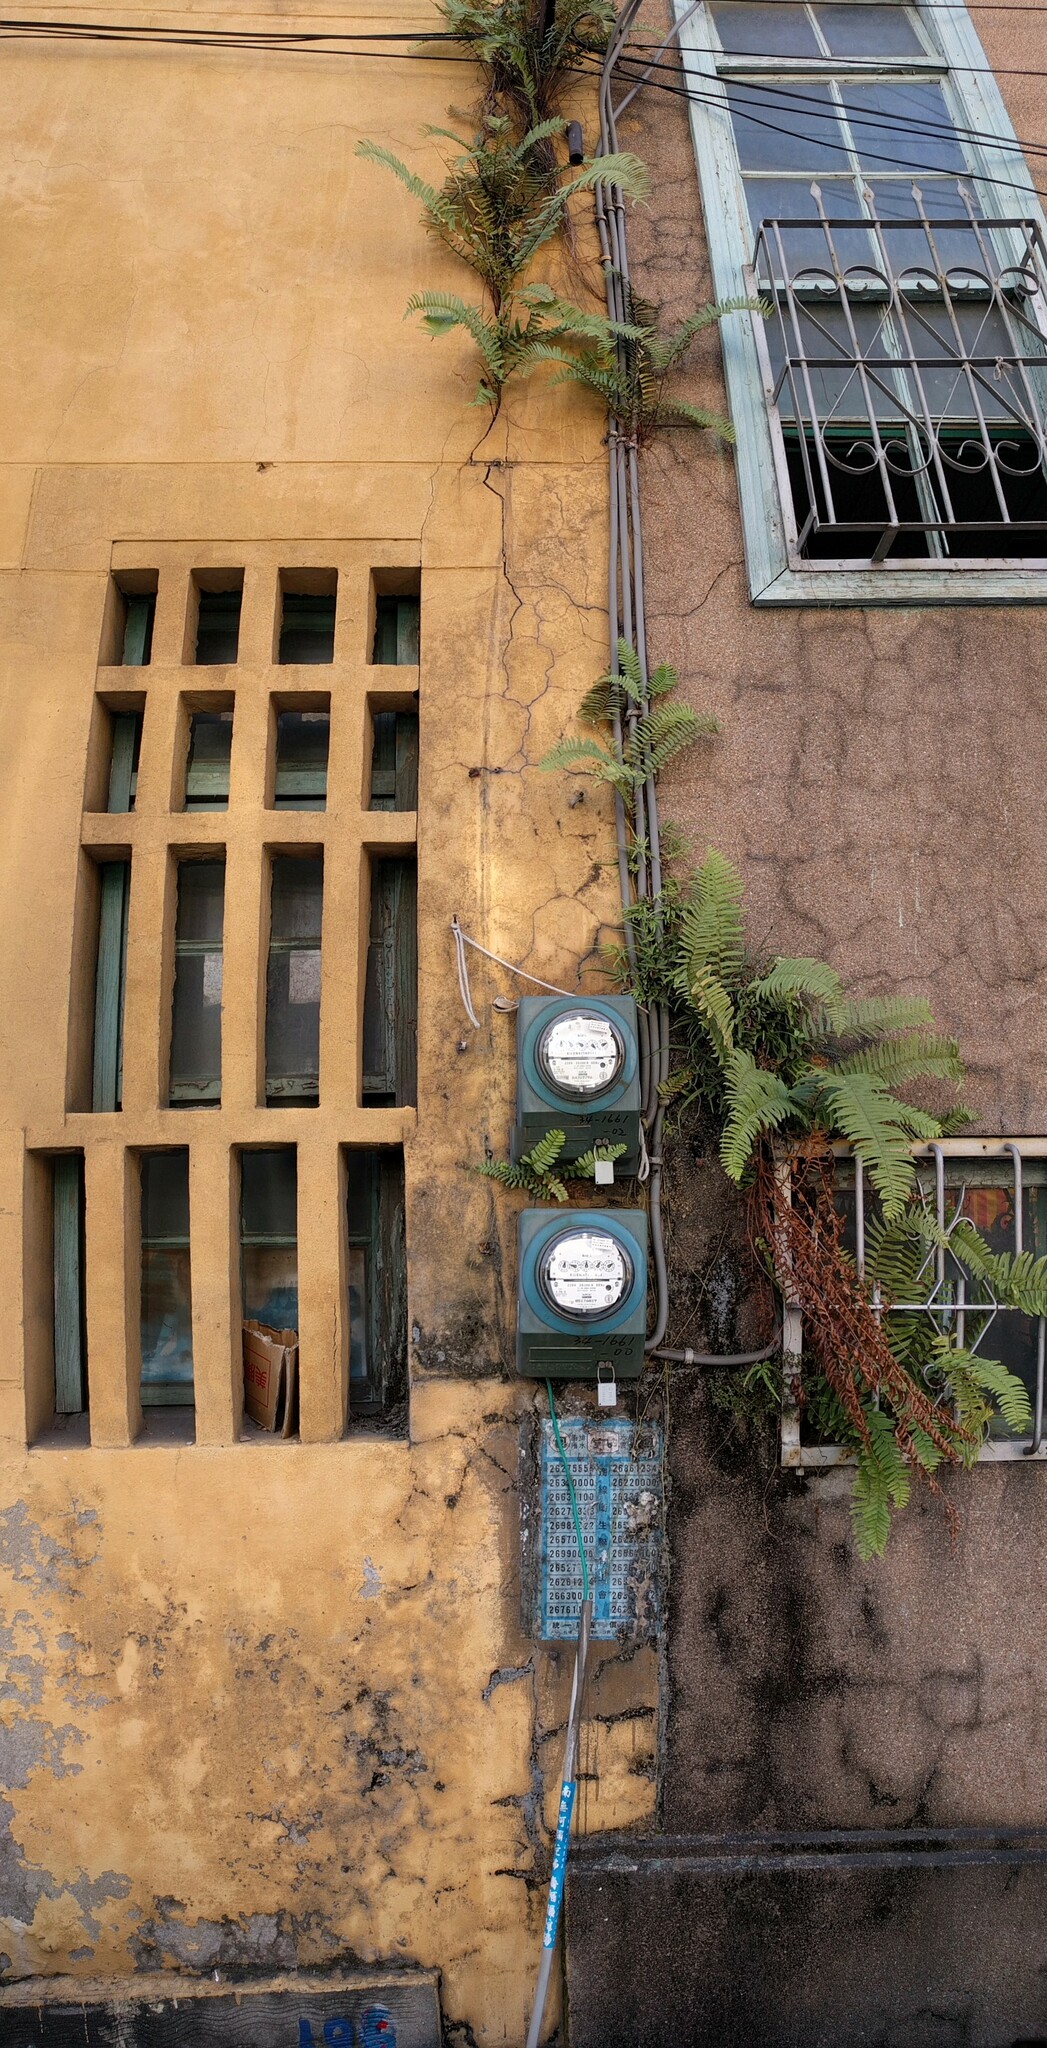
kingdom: Plantae
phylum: Tracheophyta
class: Polypodiopsida
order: Polypodiales
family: Pteridaceae
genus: Pteris
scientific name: Pteris vittata
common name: Ladder brake
